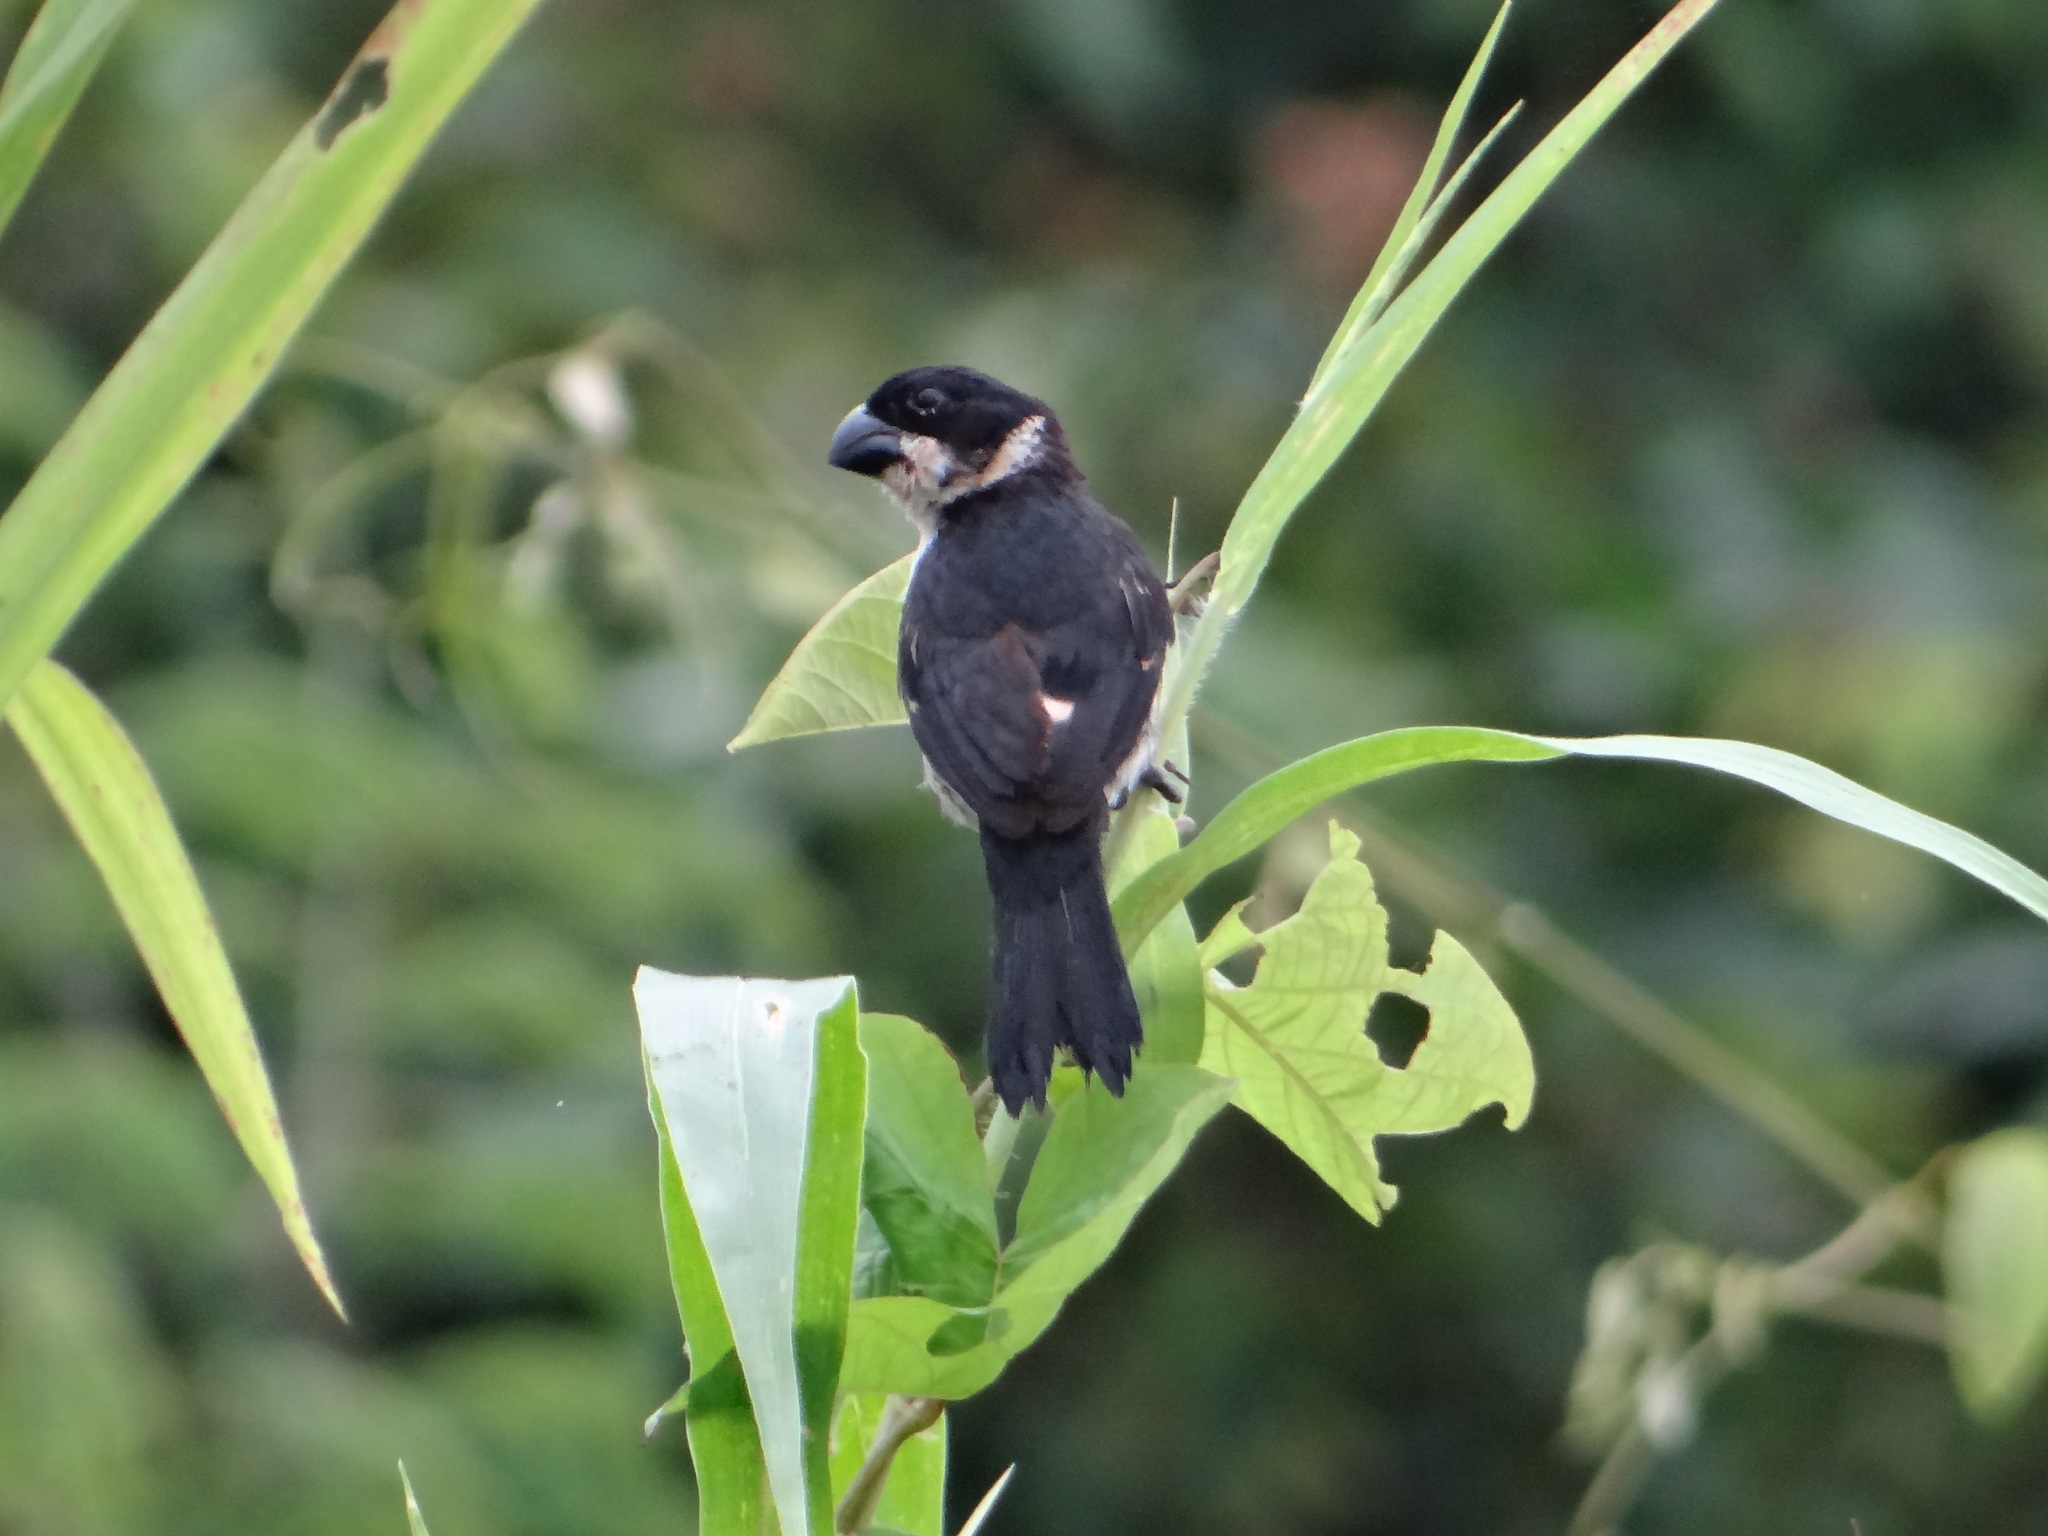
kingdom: Animalia
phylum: Chordata
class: Aves
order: Passeriformes
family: Thraupidae
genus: Sporophila
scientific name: Sporophila americana
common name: Wing-barred seedeater
